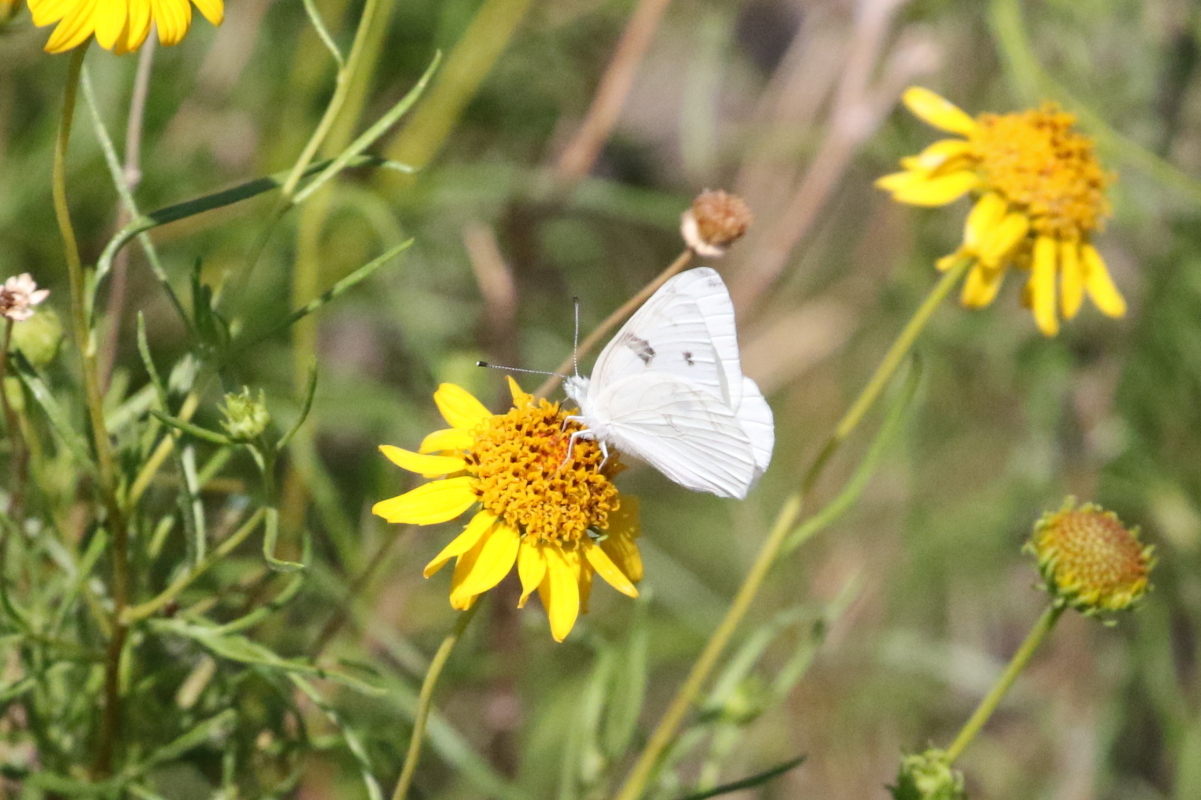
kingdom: Animalia
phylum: Arthropoda
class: Insecta
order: Lepidoptera
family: Pieridae
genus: Pontia
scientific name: Pontia protodice
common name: Checkered white
